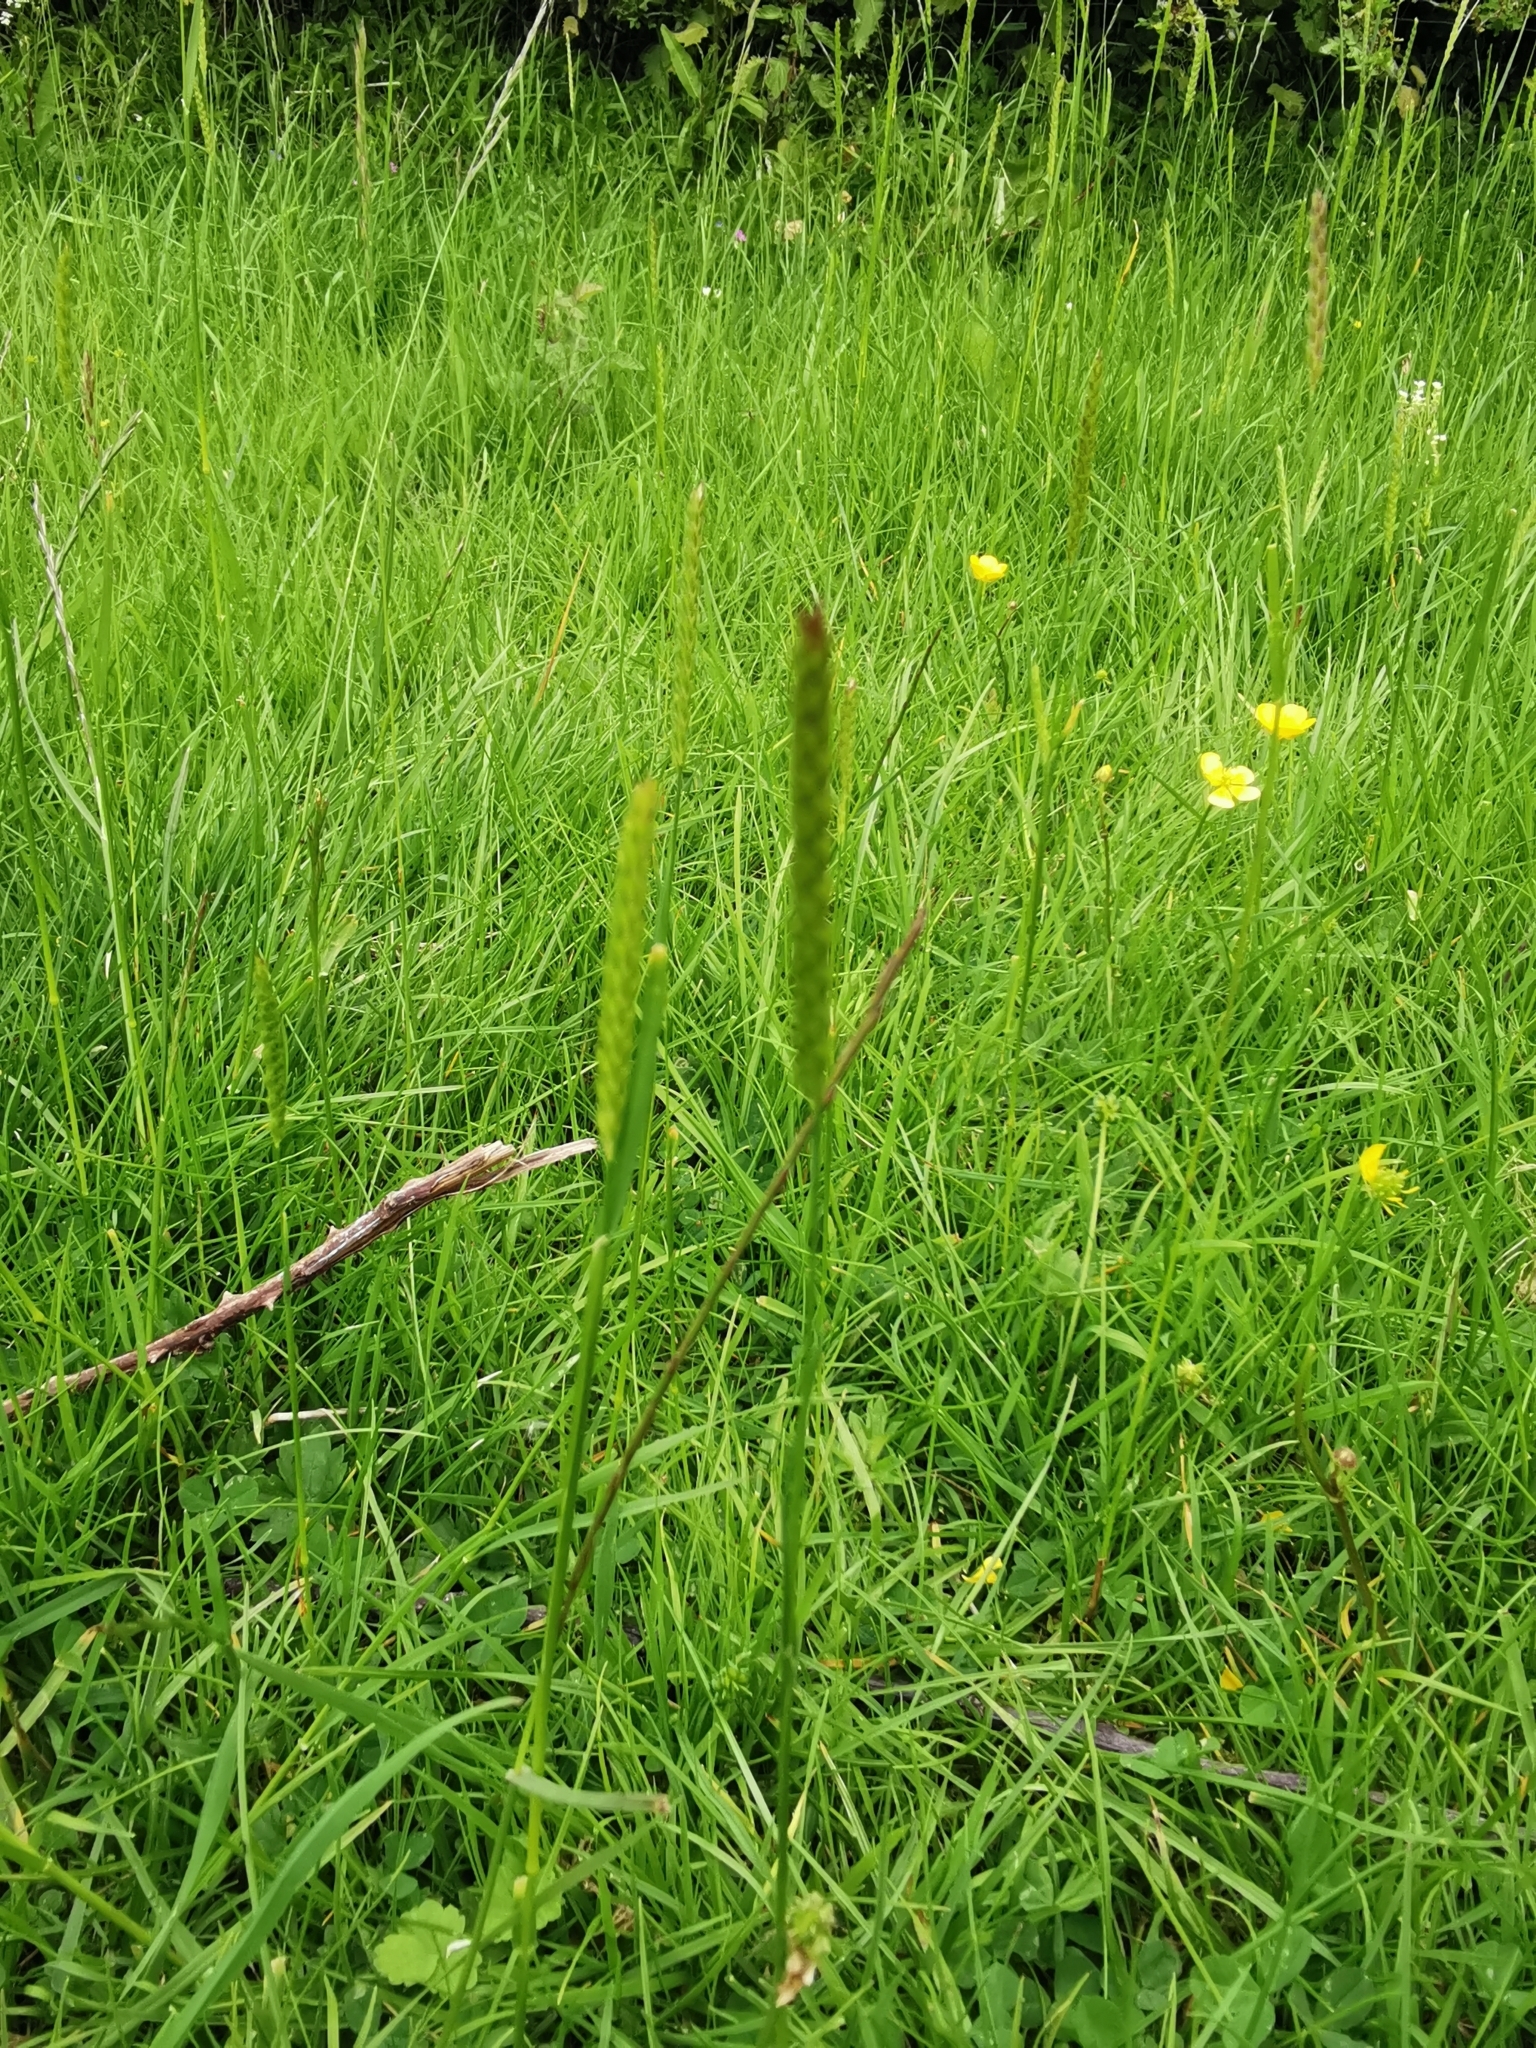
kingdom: Plantae
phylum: Tracheophyta
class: Liliopsida
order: Poales
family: Poaceae
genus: Cynosurus
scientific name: Cynosurus cristatus
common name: Crested dog's-tail
